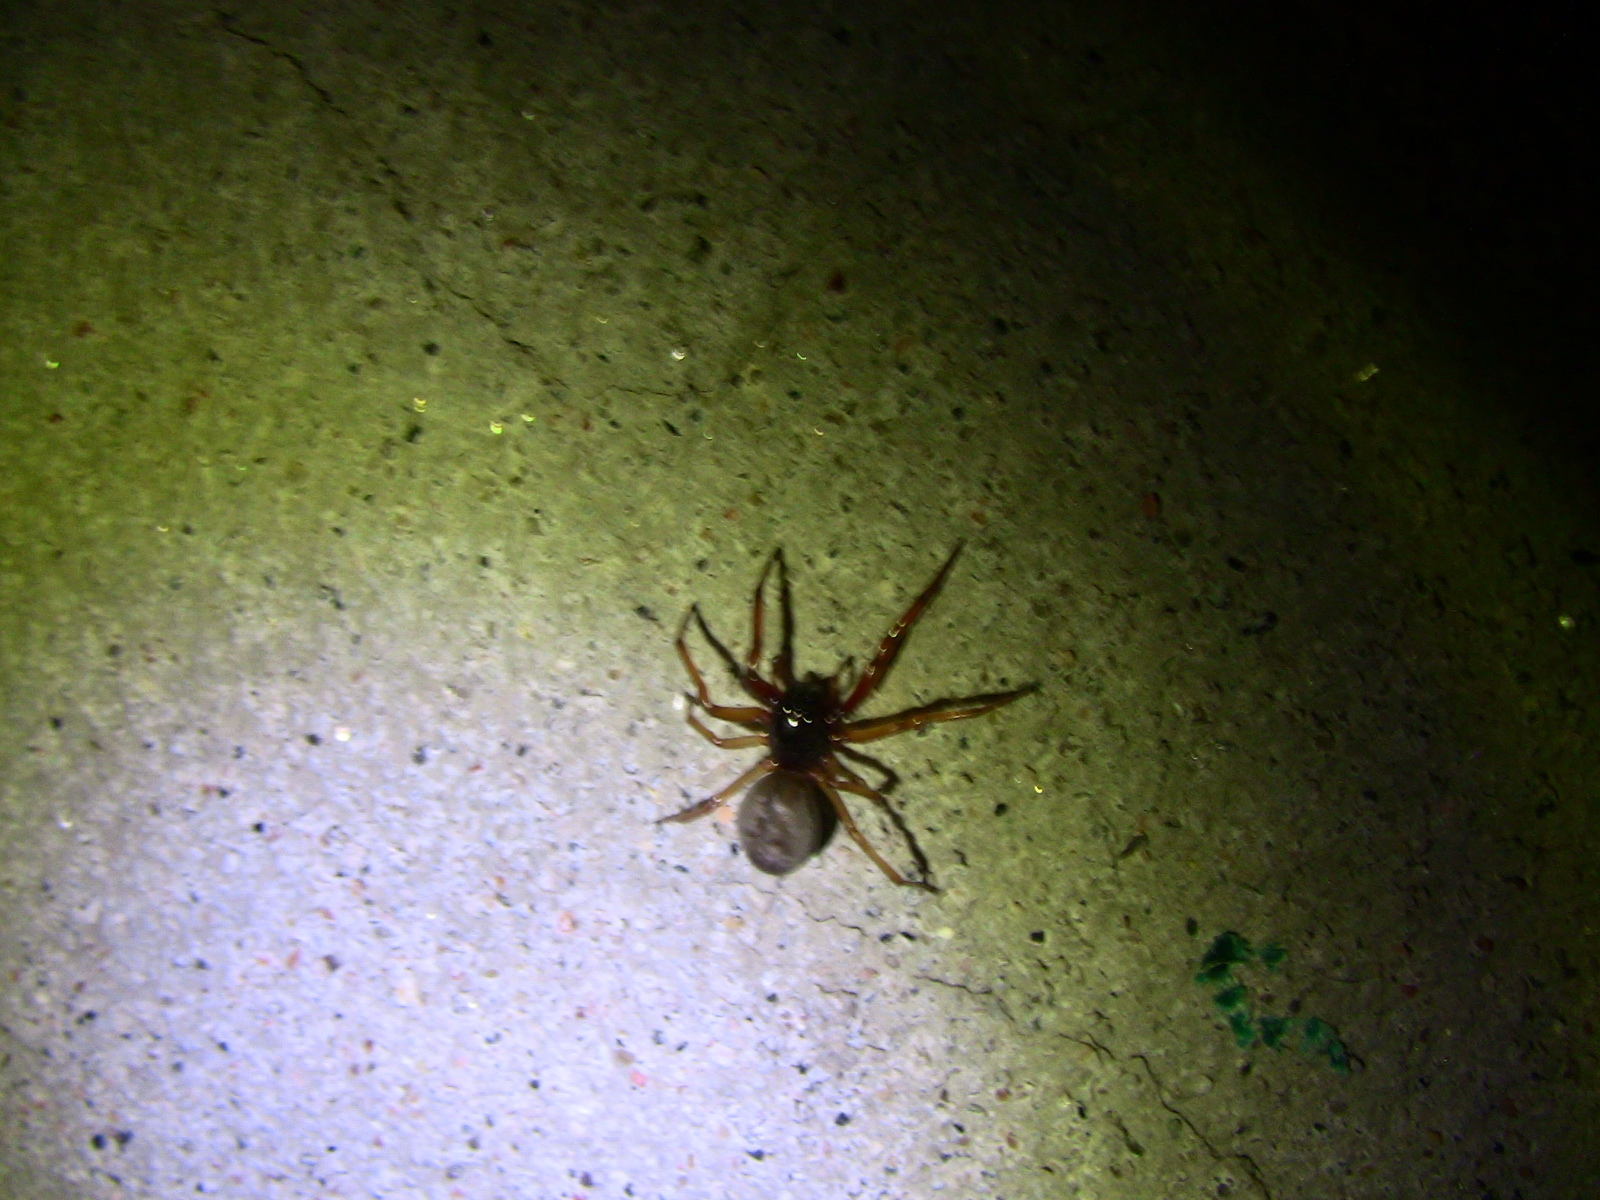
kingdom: Animalia
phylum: Arthropoda
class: Arachnida
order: Araneae
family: Trachelidae
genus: Trachelas
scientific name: Trachelas tranquillus
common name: Broad-faced sac spider
